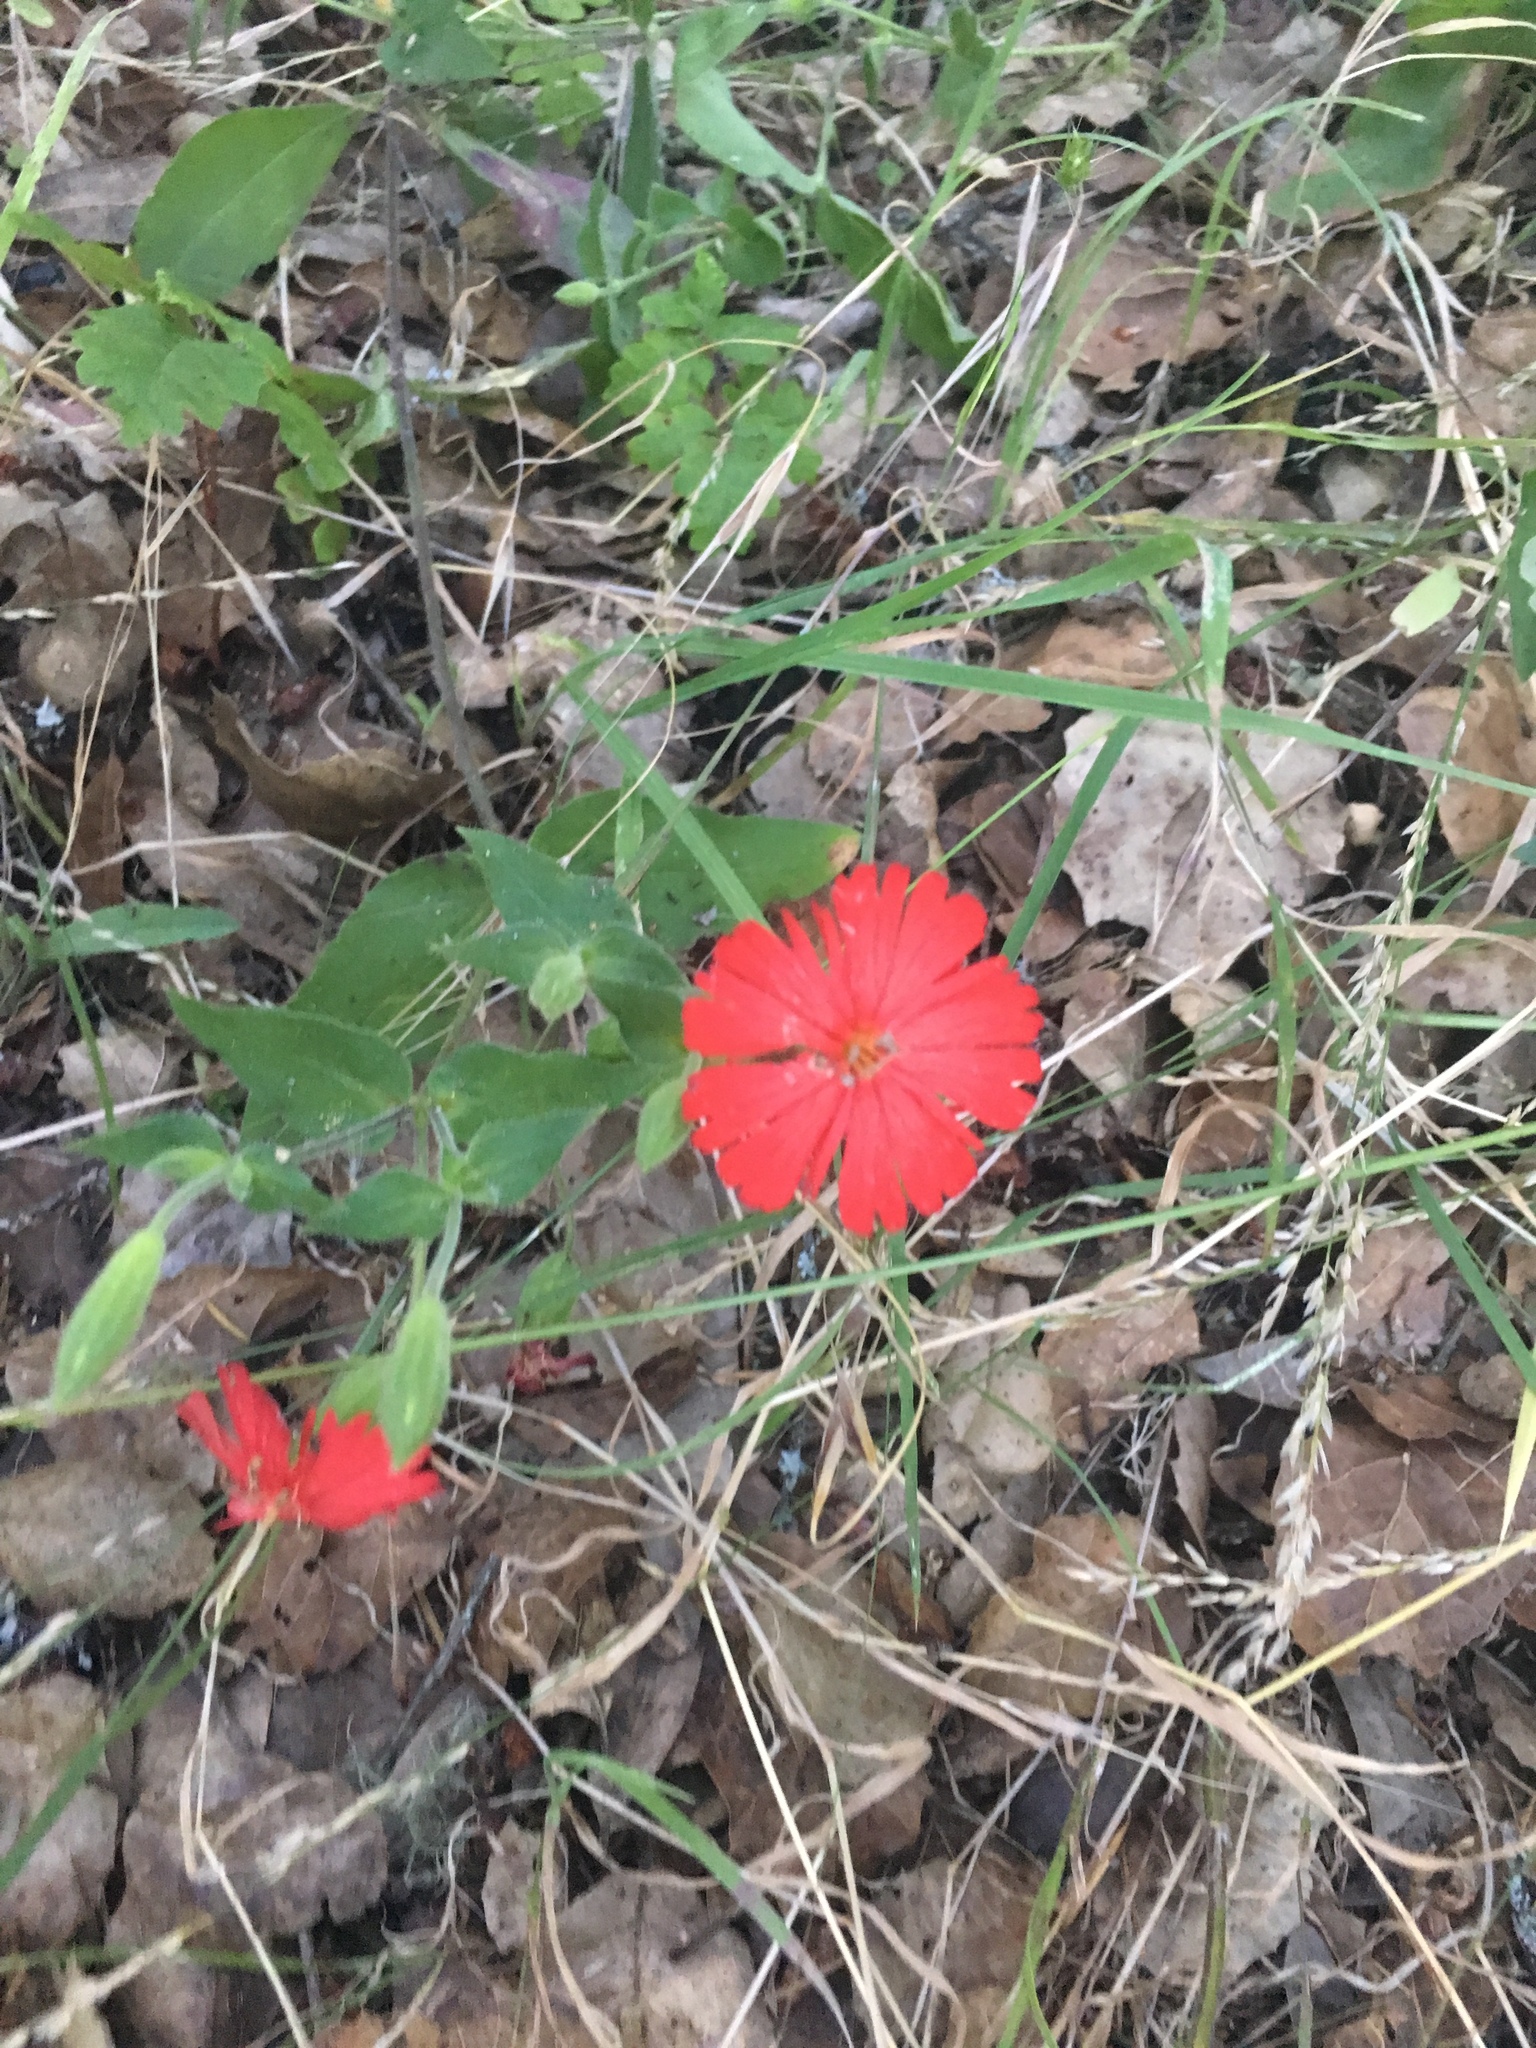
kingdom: Plantae
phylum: Tracheophyta
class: Magnoliopsida
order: Caryophyllales
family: Caryophyllaceae
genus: Silene
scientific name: Silene laciniata
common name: Indian-pink
